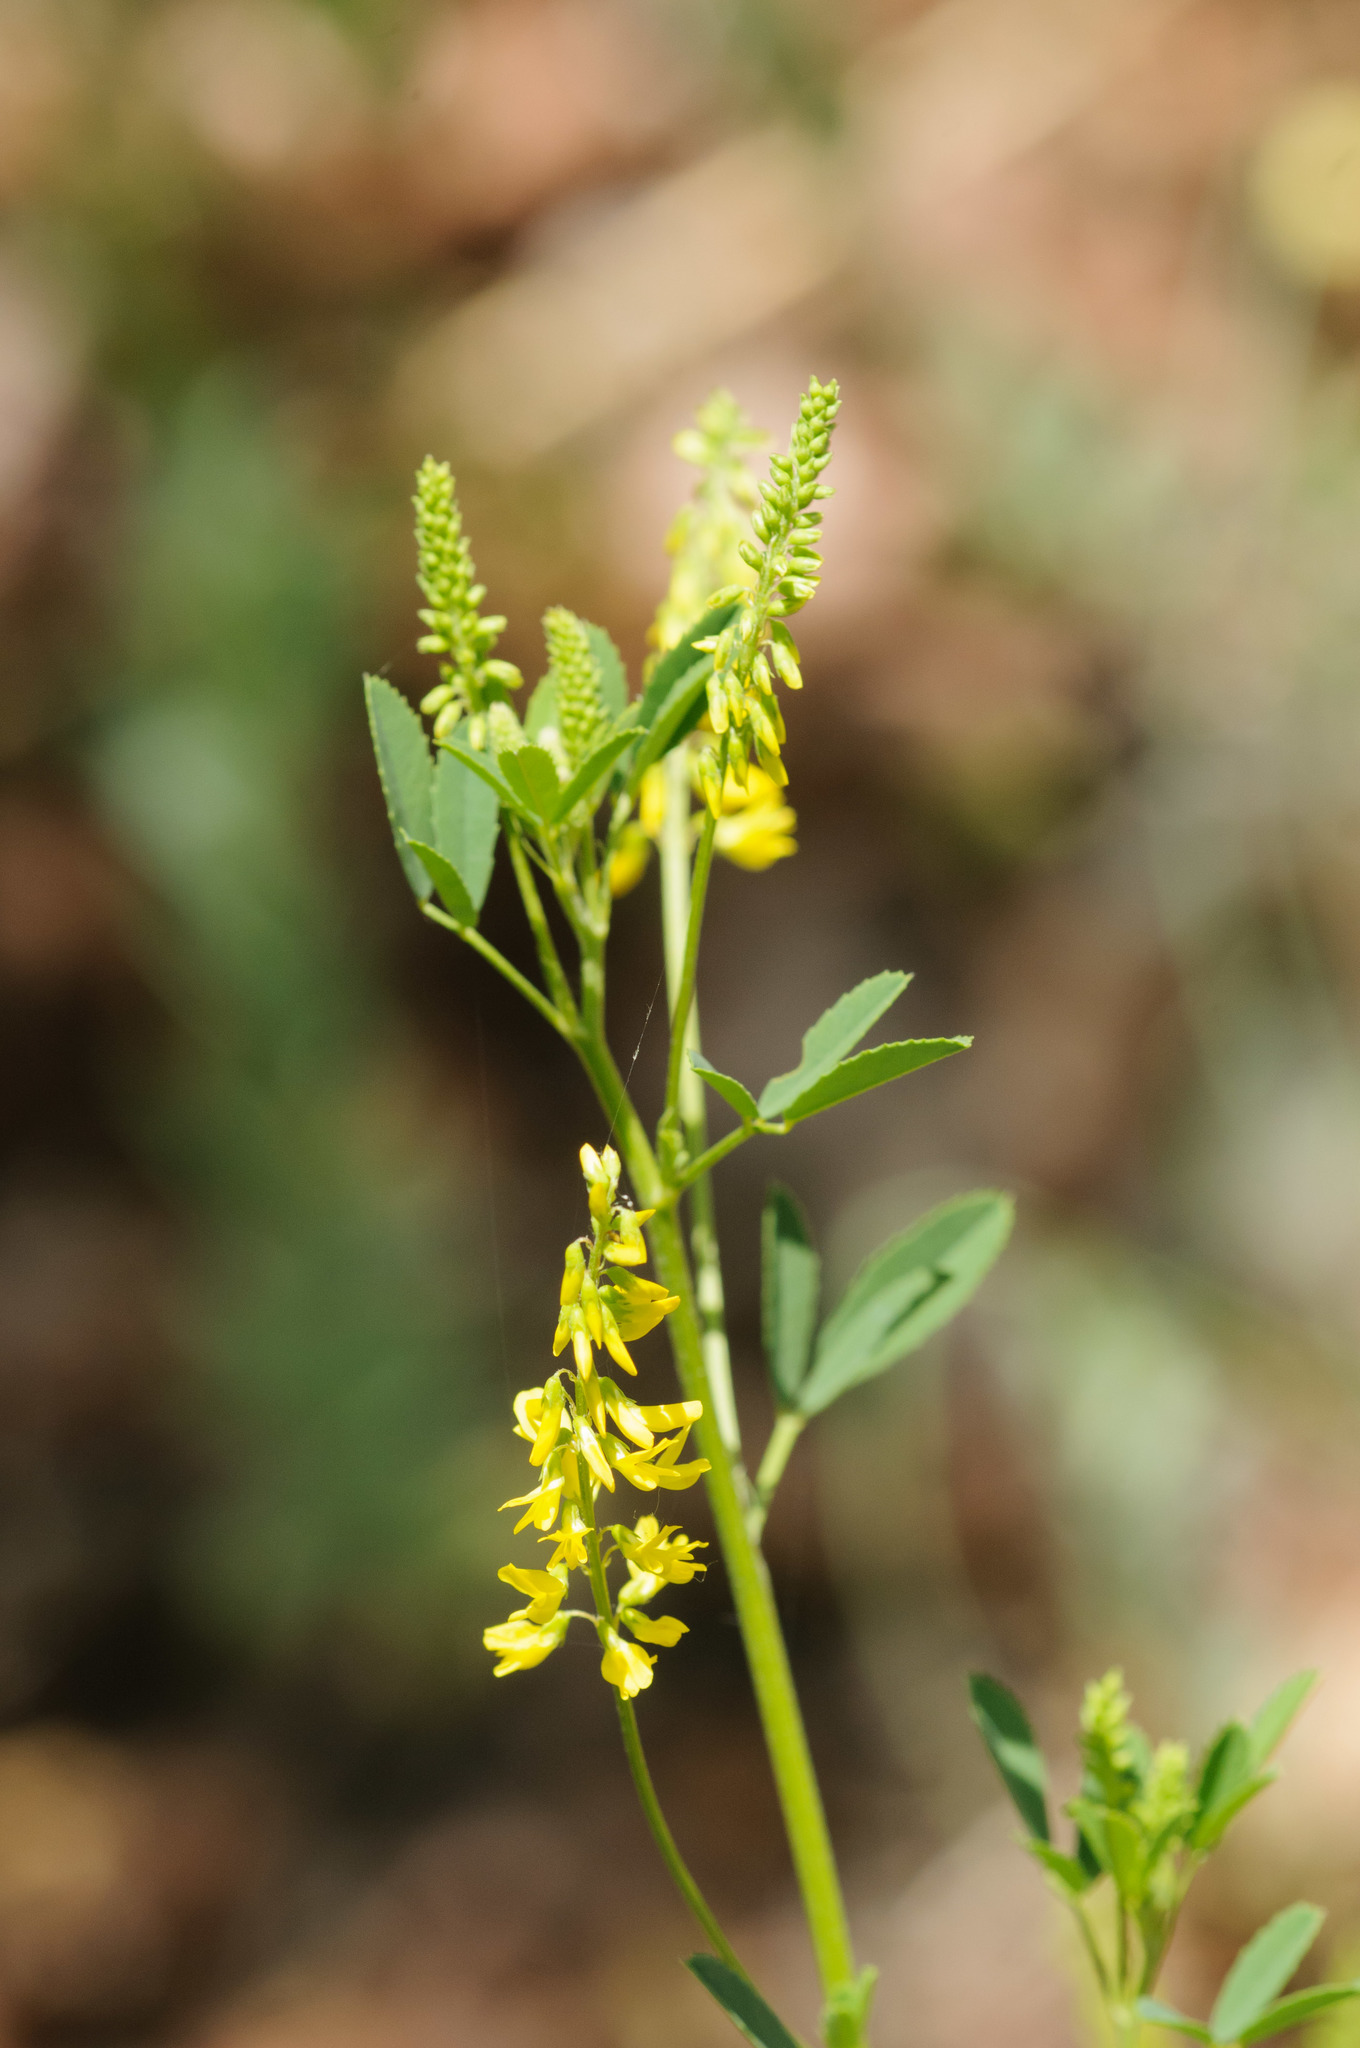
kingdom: Plantae
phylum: Tracheophyta
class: Magnoliopsida
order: Fabales
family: Fabaceae
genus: Melilotus
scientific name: Melilotus officinalis
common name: Sweetclover
